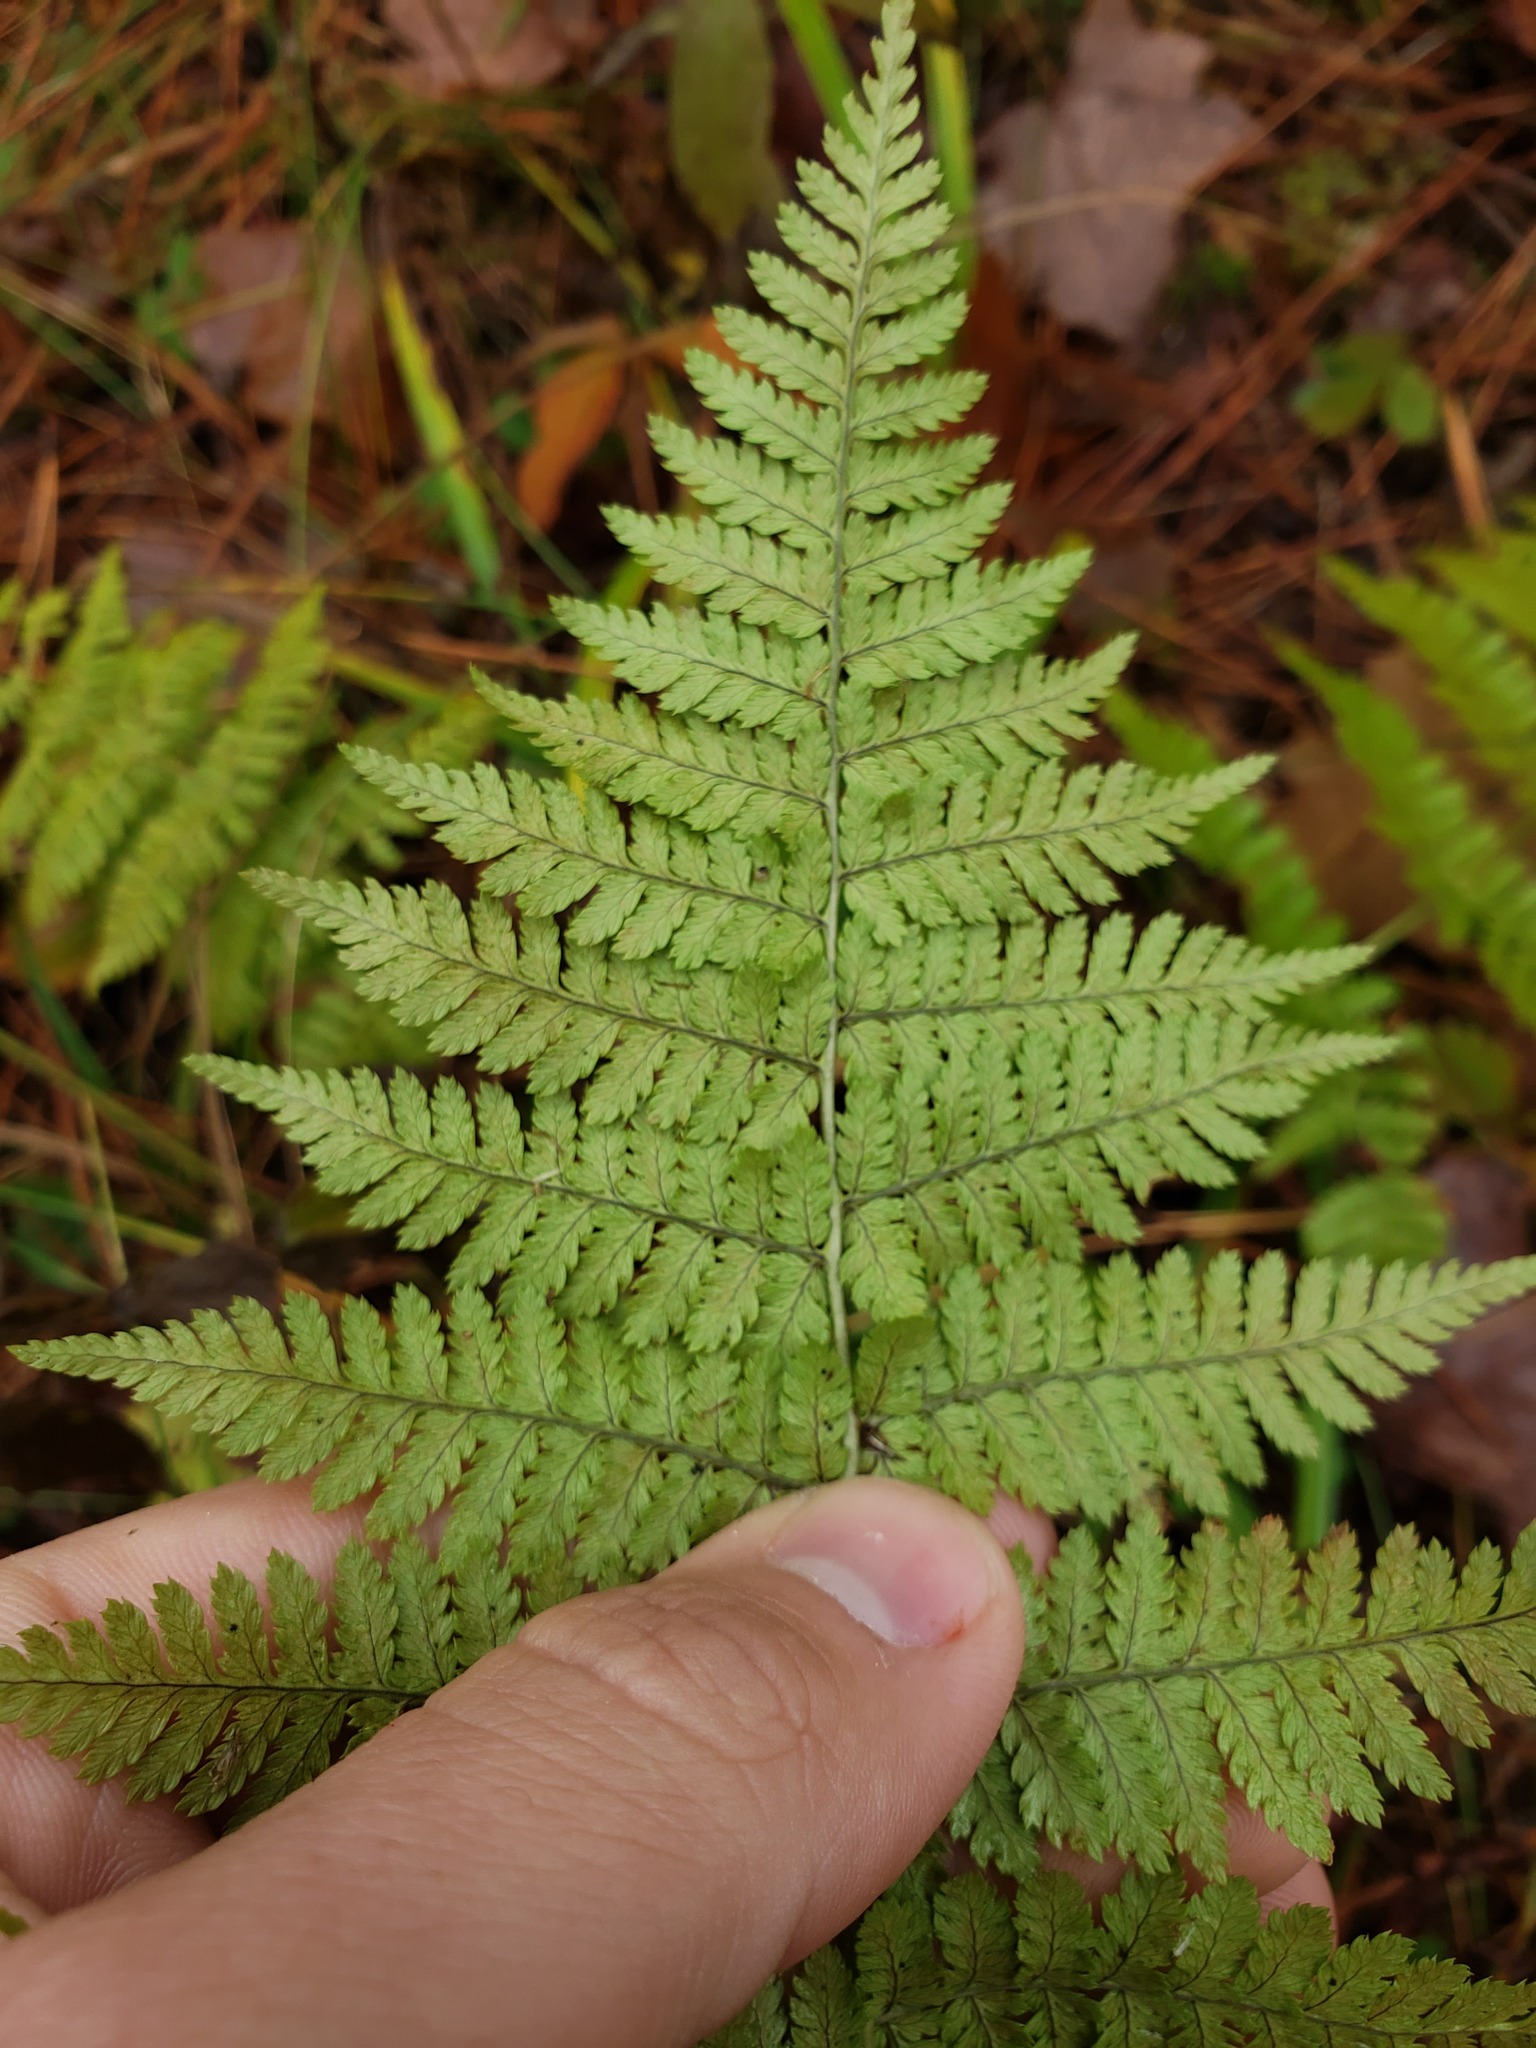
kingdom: Plantae
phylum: Tracheophyta
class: Polypodiopsida
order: Polypodiales
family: Dryopteridaceae
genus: Dryopteris
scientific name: Dryopteris intermedia
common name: Evergreen wood fern
